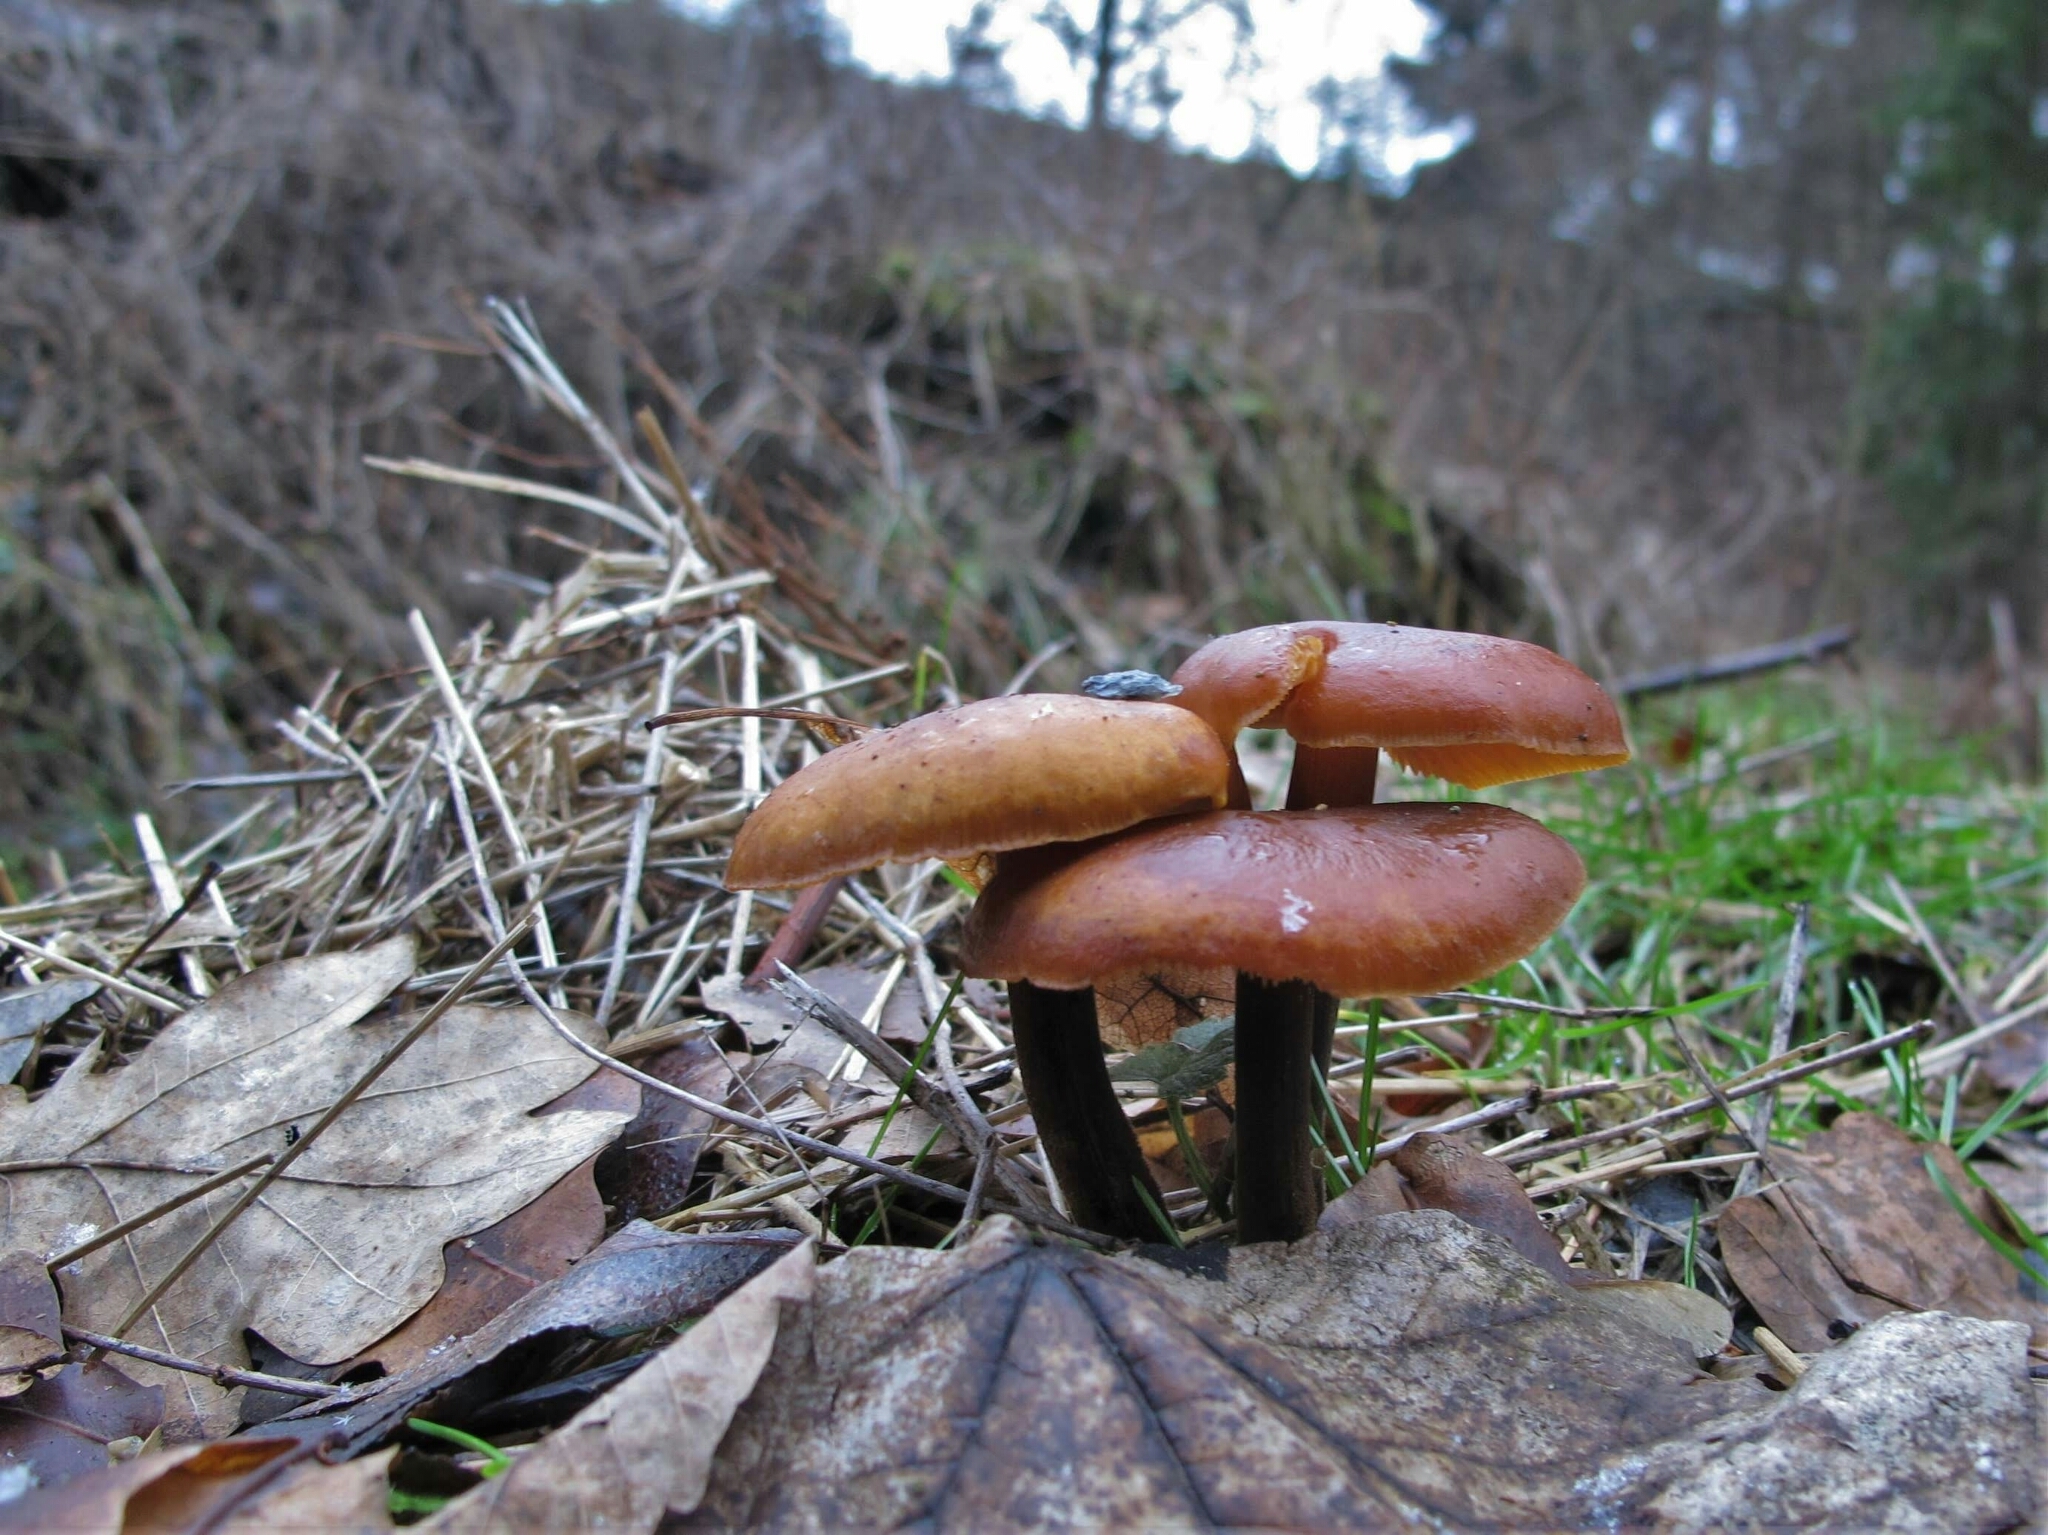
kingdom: Fungi
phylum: Basidiomycota
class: Agaricomycetes
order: Agaricales
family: Physalacriaceae
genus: Flammulina
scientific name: Flammulina
